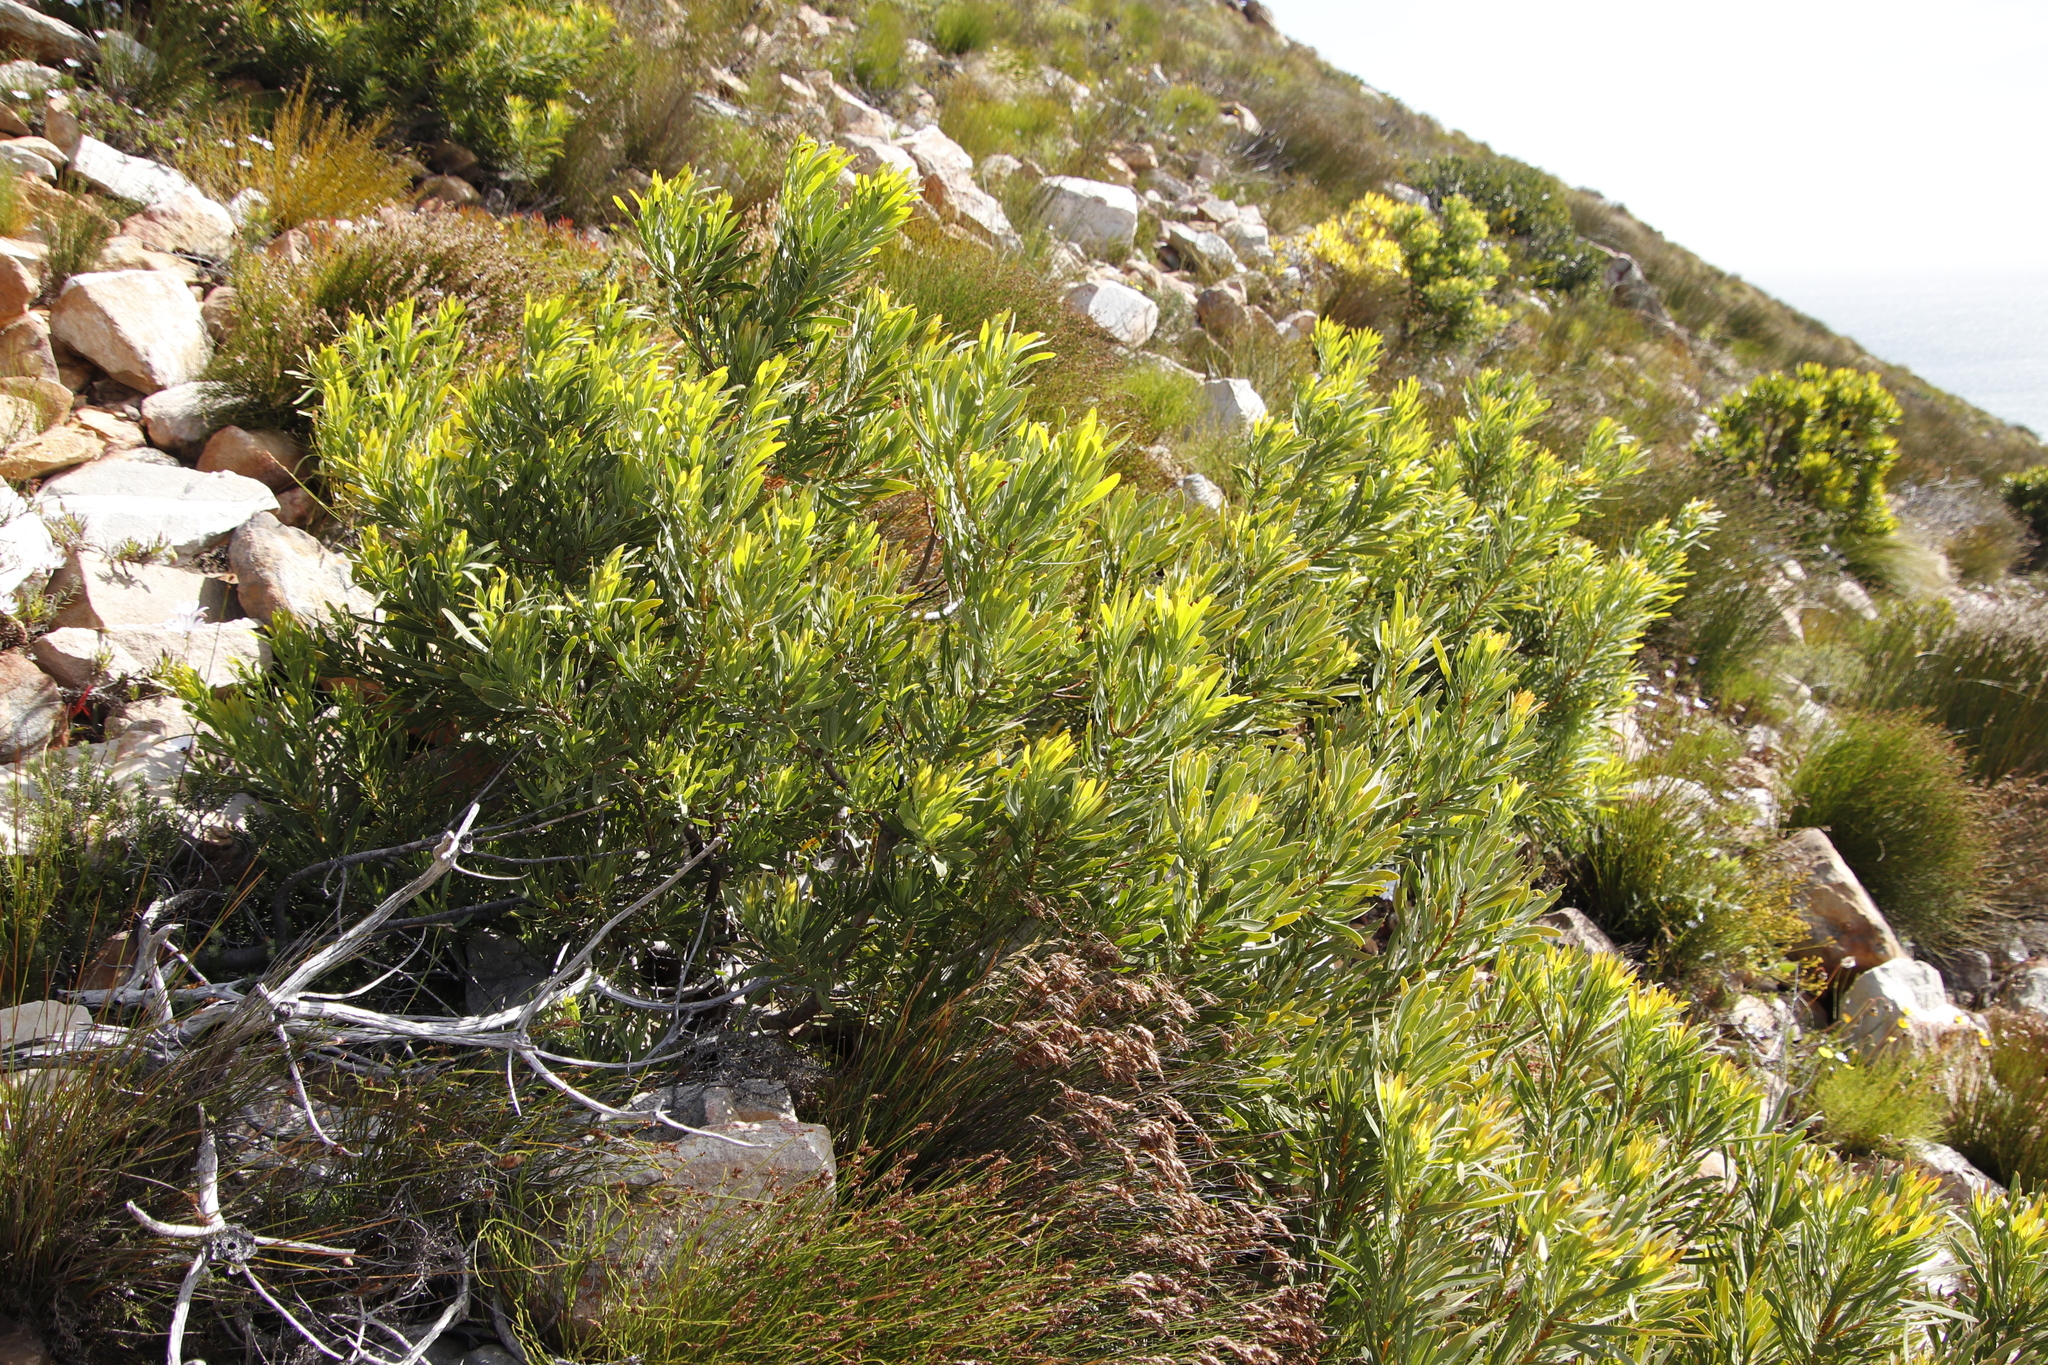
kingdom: Plantae
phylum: Tracheophyta
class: Magnoliopsida
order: Proteales
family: Proteaceae
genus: Protea
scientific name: Protea repens
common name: Sugarbush
